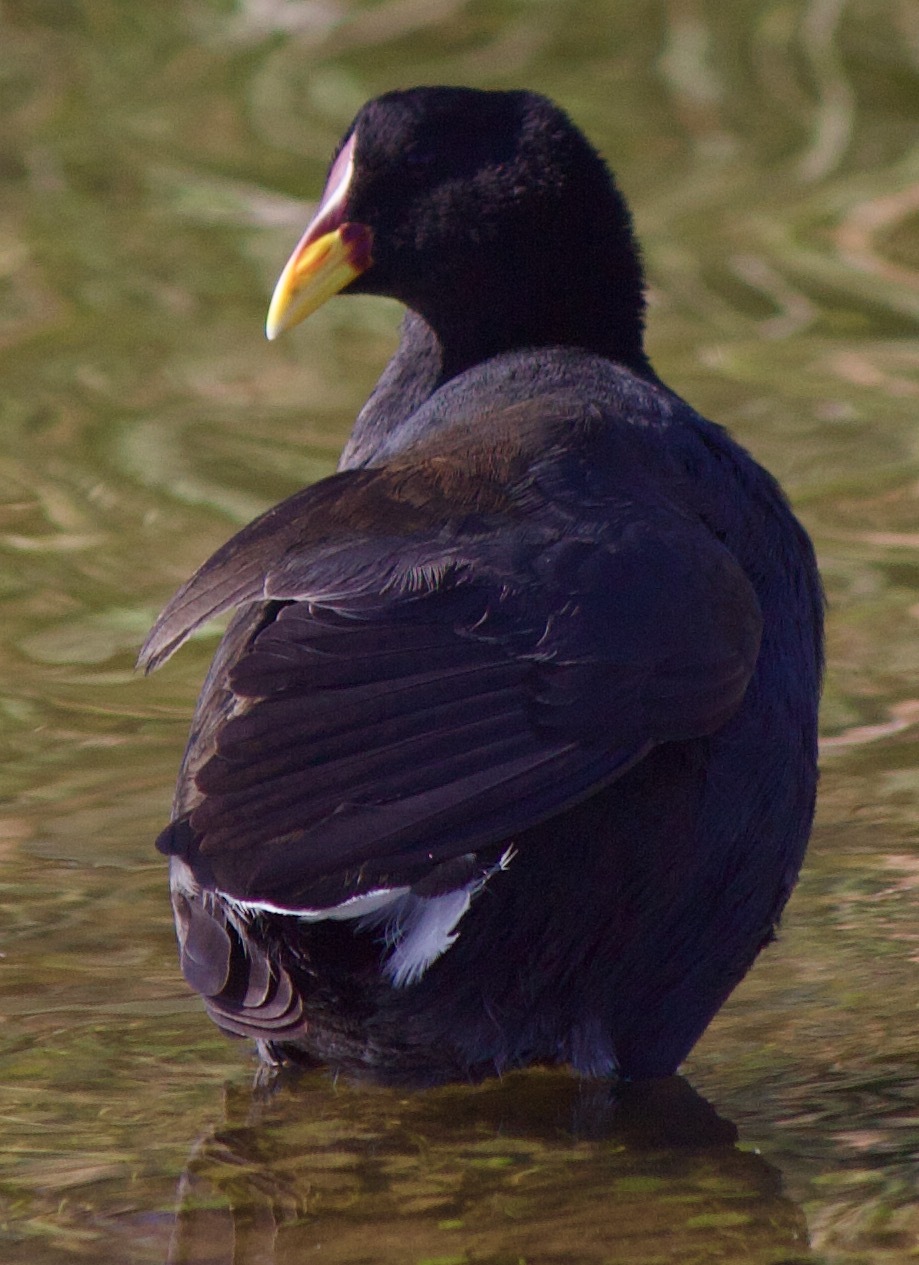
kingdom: Animalia
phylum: Chordata
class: Aves
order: Gruiformes
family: Rallidae
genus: Fulica
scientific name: Fulica rufifrons
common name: Red-fronted coot
